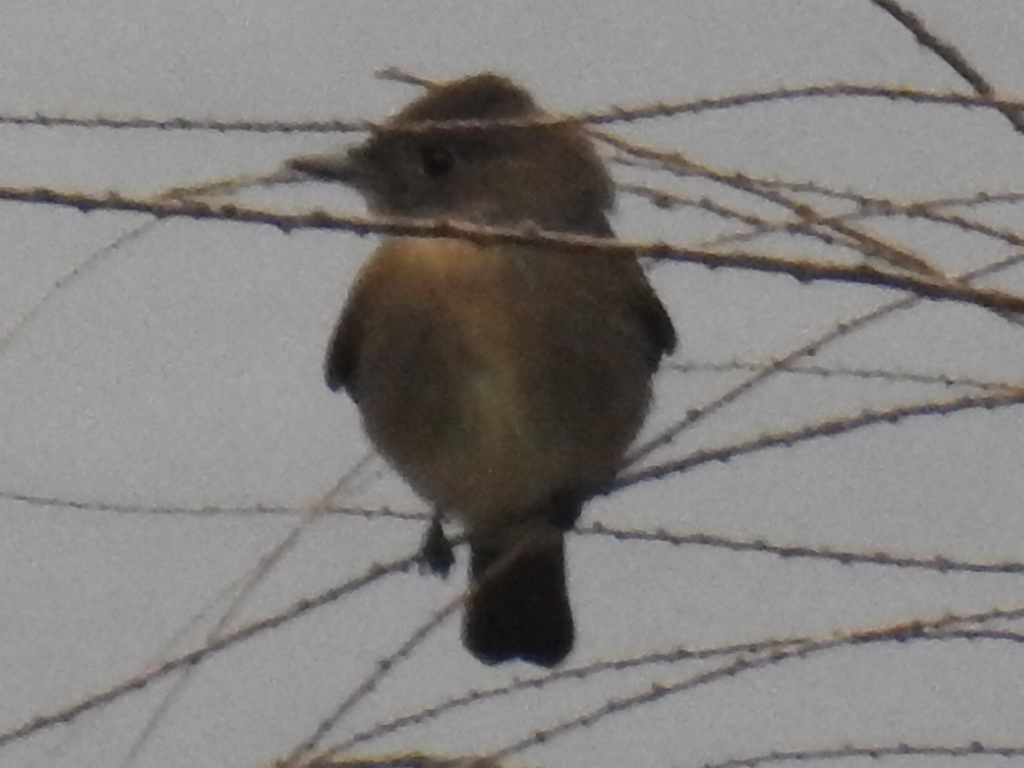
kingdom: Animalia
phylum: Chordata
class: Aves
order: Passeriformes
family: Tyrannidae
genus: Contopus
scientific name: Contopus sordidulus
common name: Western wood-pewee
